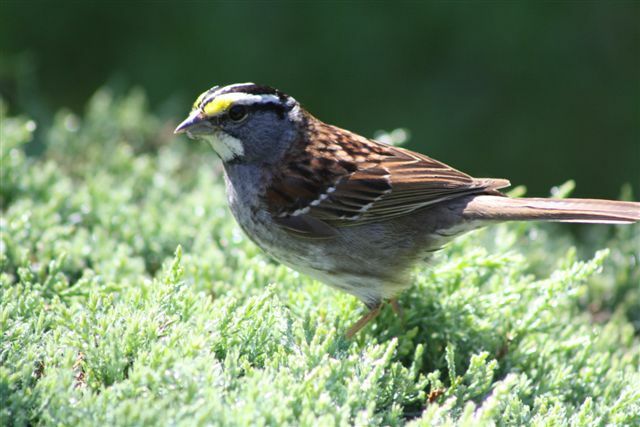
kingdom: Animalia
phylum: Chordata
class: Aves
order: Passeriformes
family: Passerellidae
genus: Zonotrichia
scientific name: Zonotrichia albicollis
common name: White-throated sparrow
